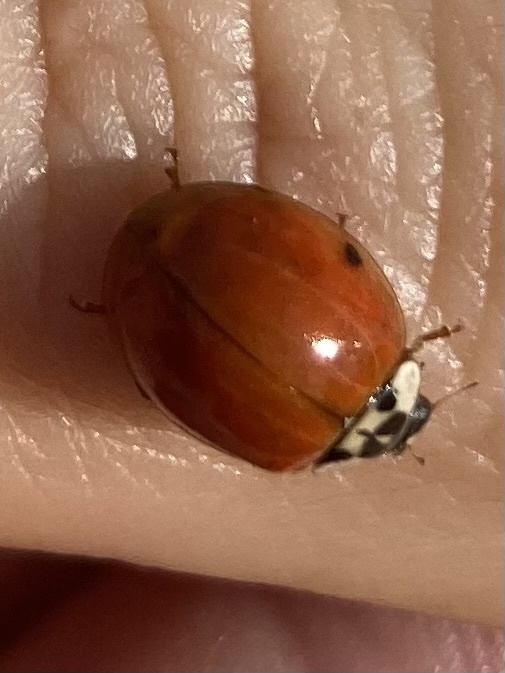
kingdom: Animalia
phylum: Arthropoda
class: Insecta
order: Coleoptera
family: Coccinellidae
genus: Harmonia
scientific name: Harmonia axyridis
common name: Harlequin ladybird
